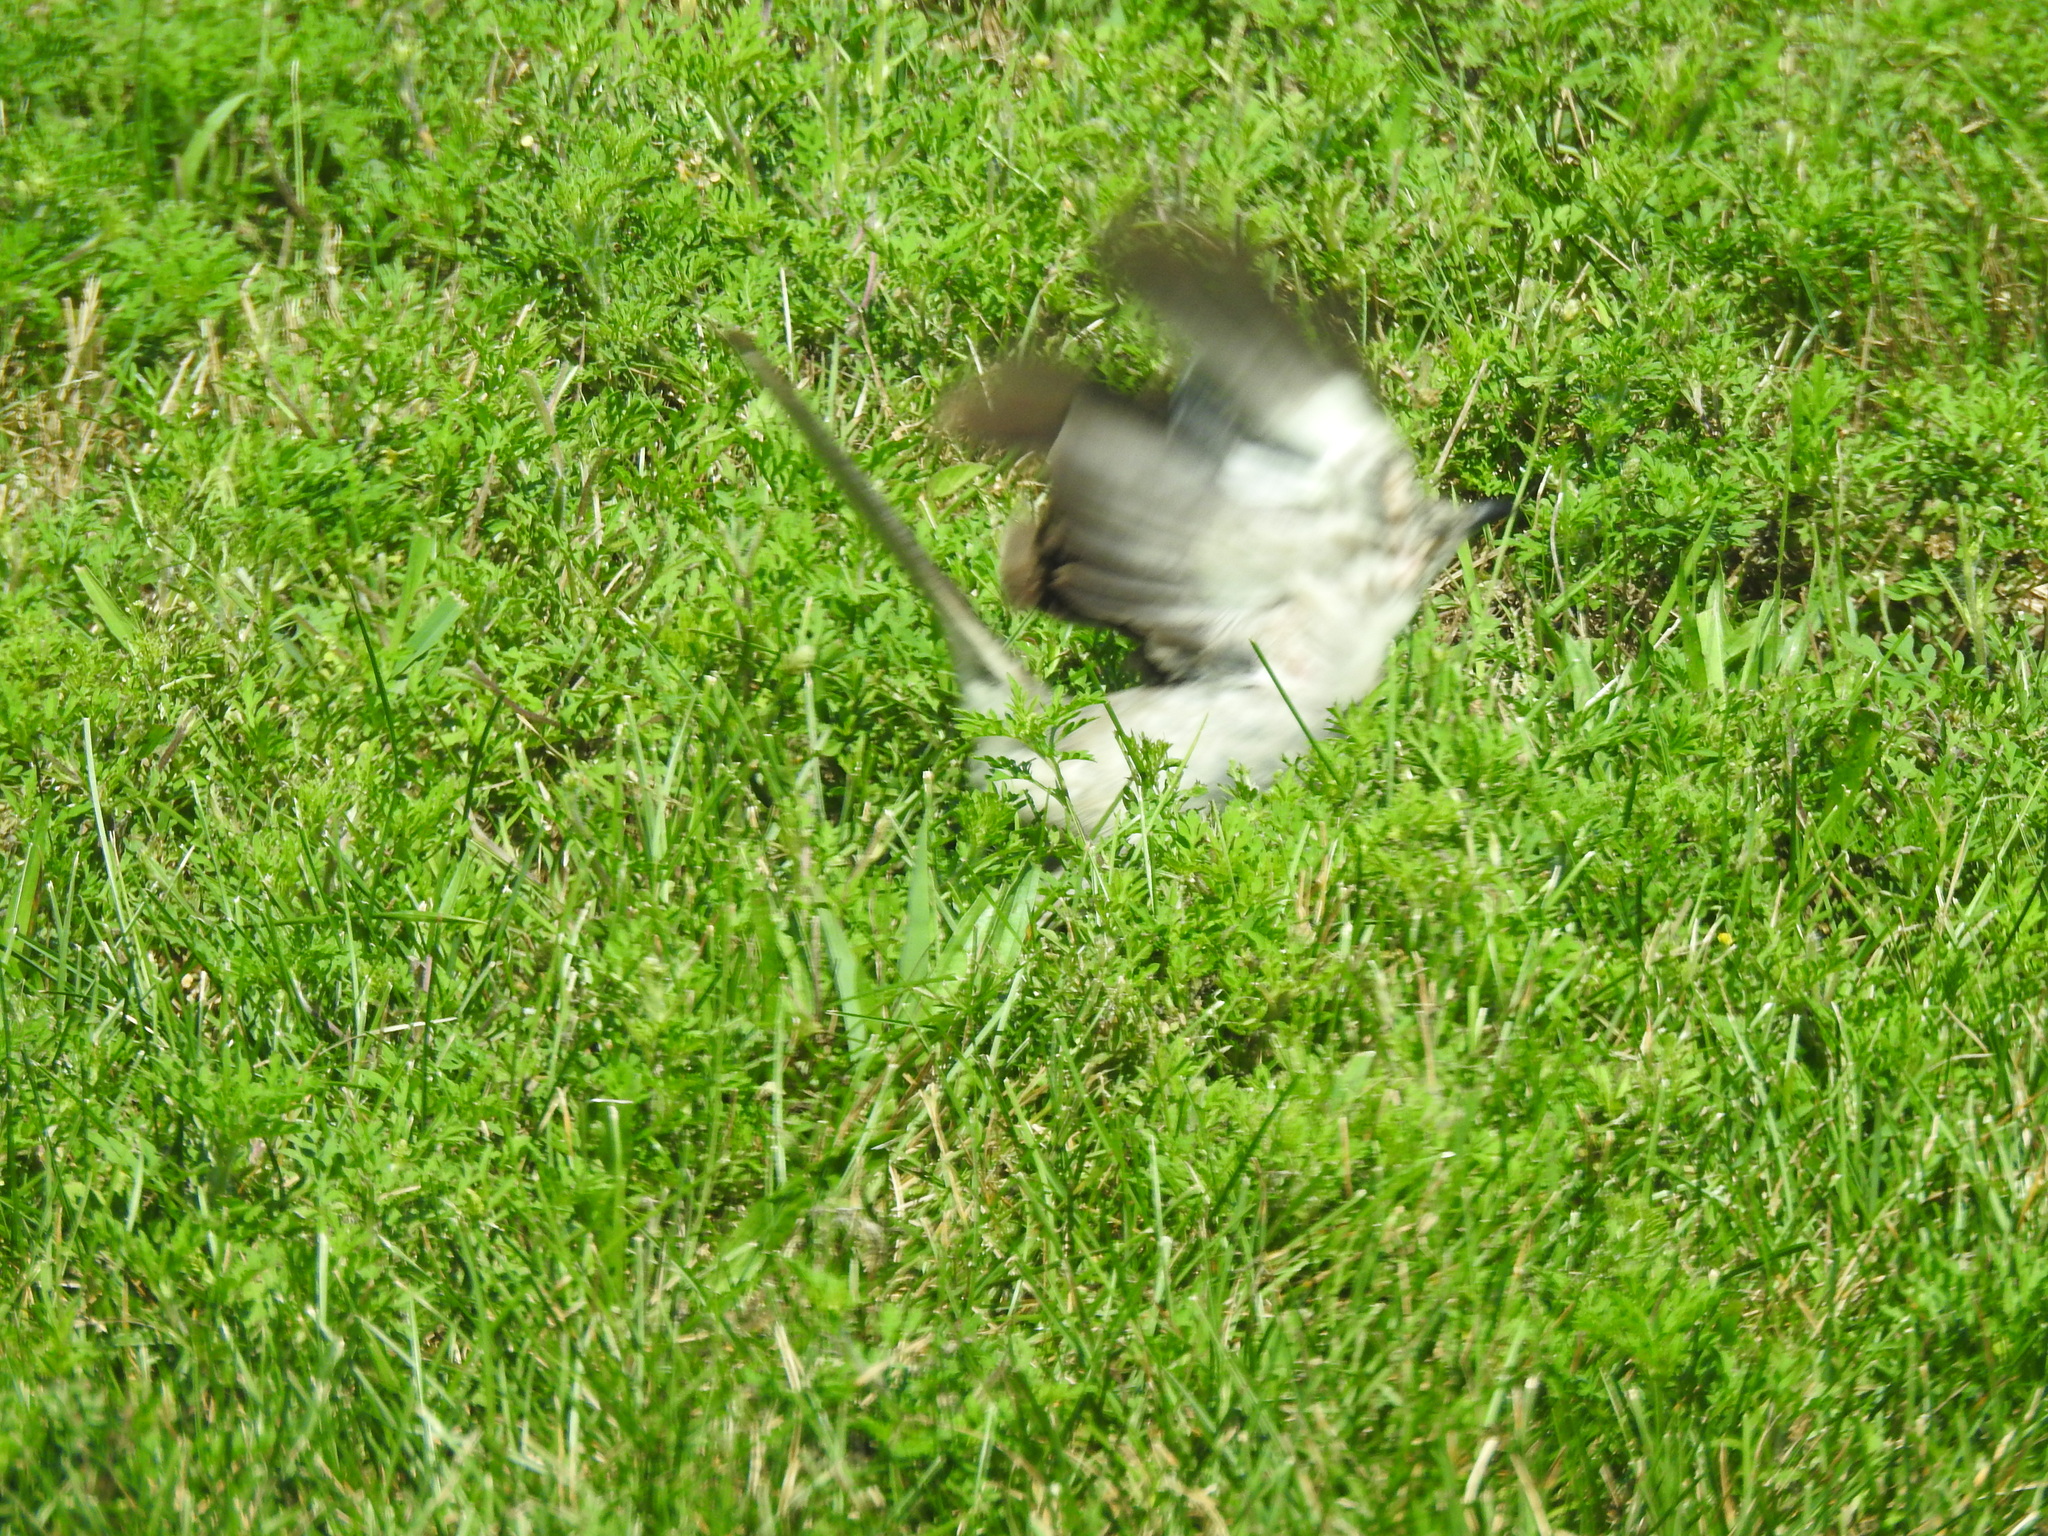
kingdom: Animalia
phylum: Chordata
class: Aves
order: Passeriformes
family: Mimidae
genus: Mimus
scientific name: Mimus polyglottos
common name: Northern mockingbird
